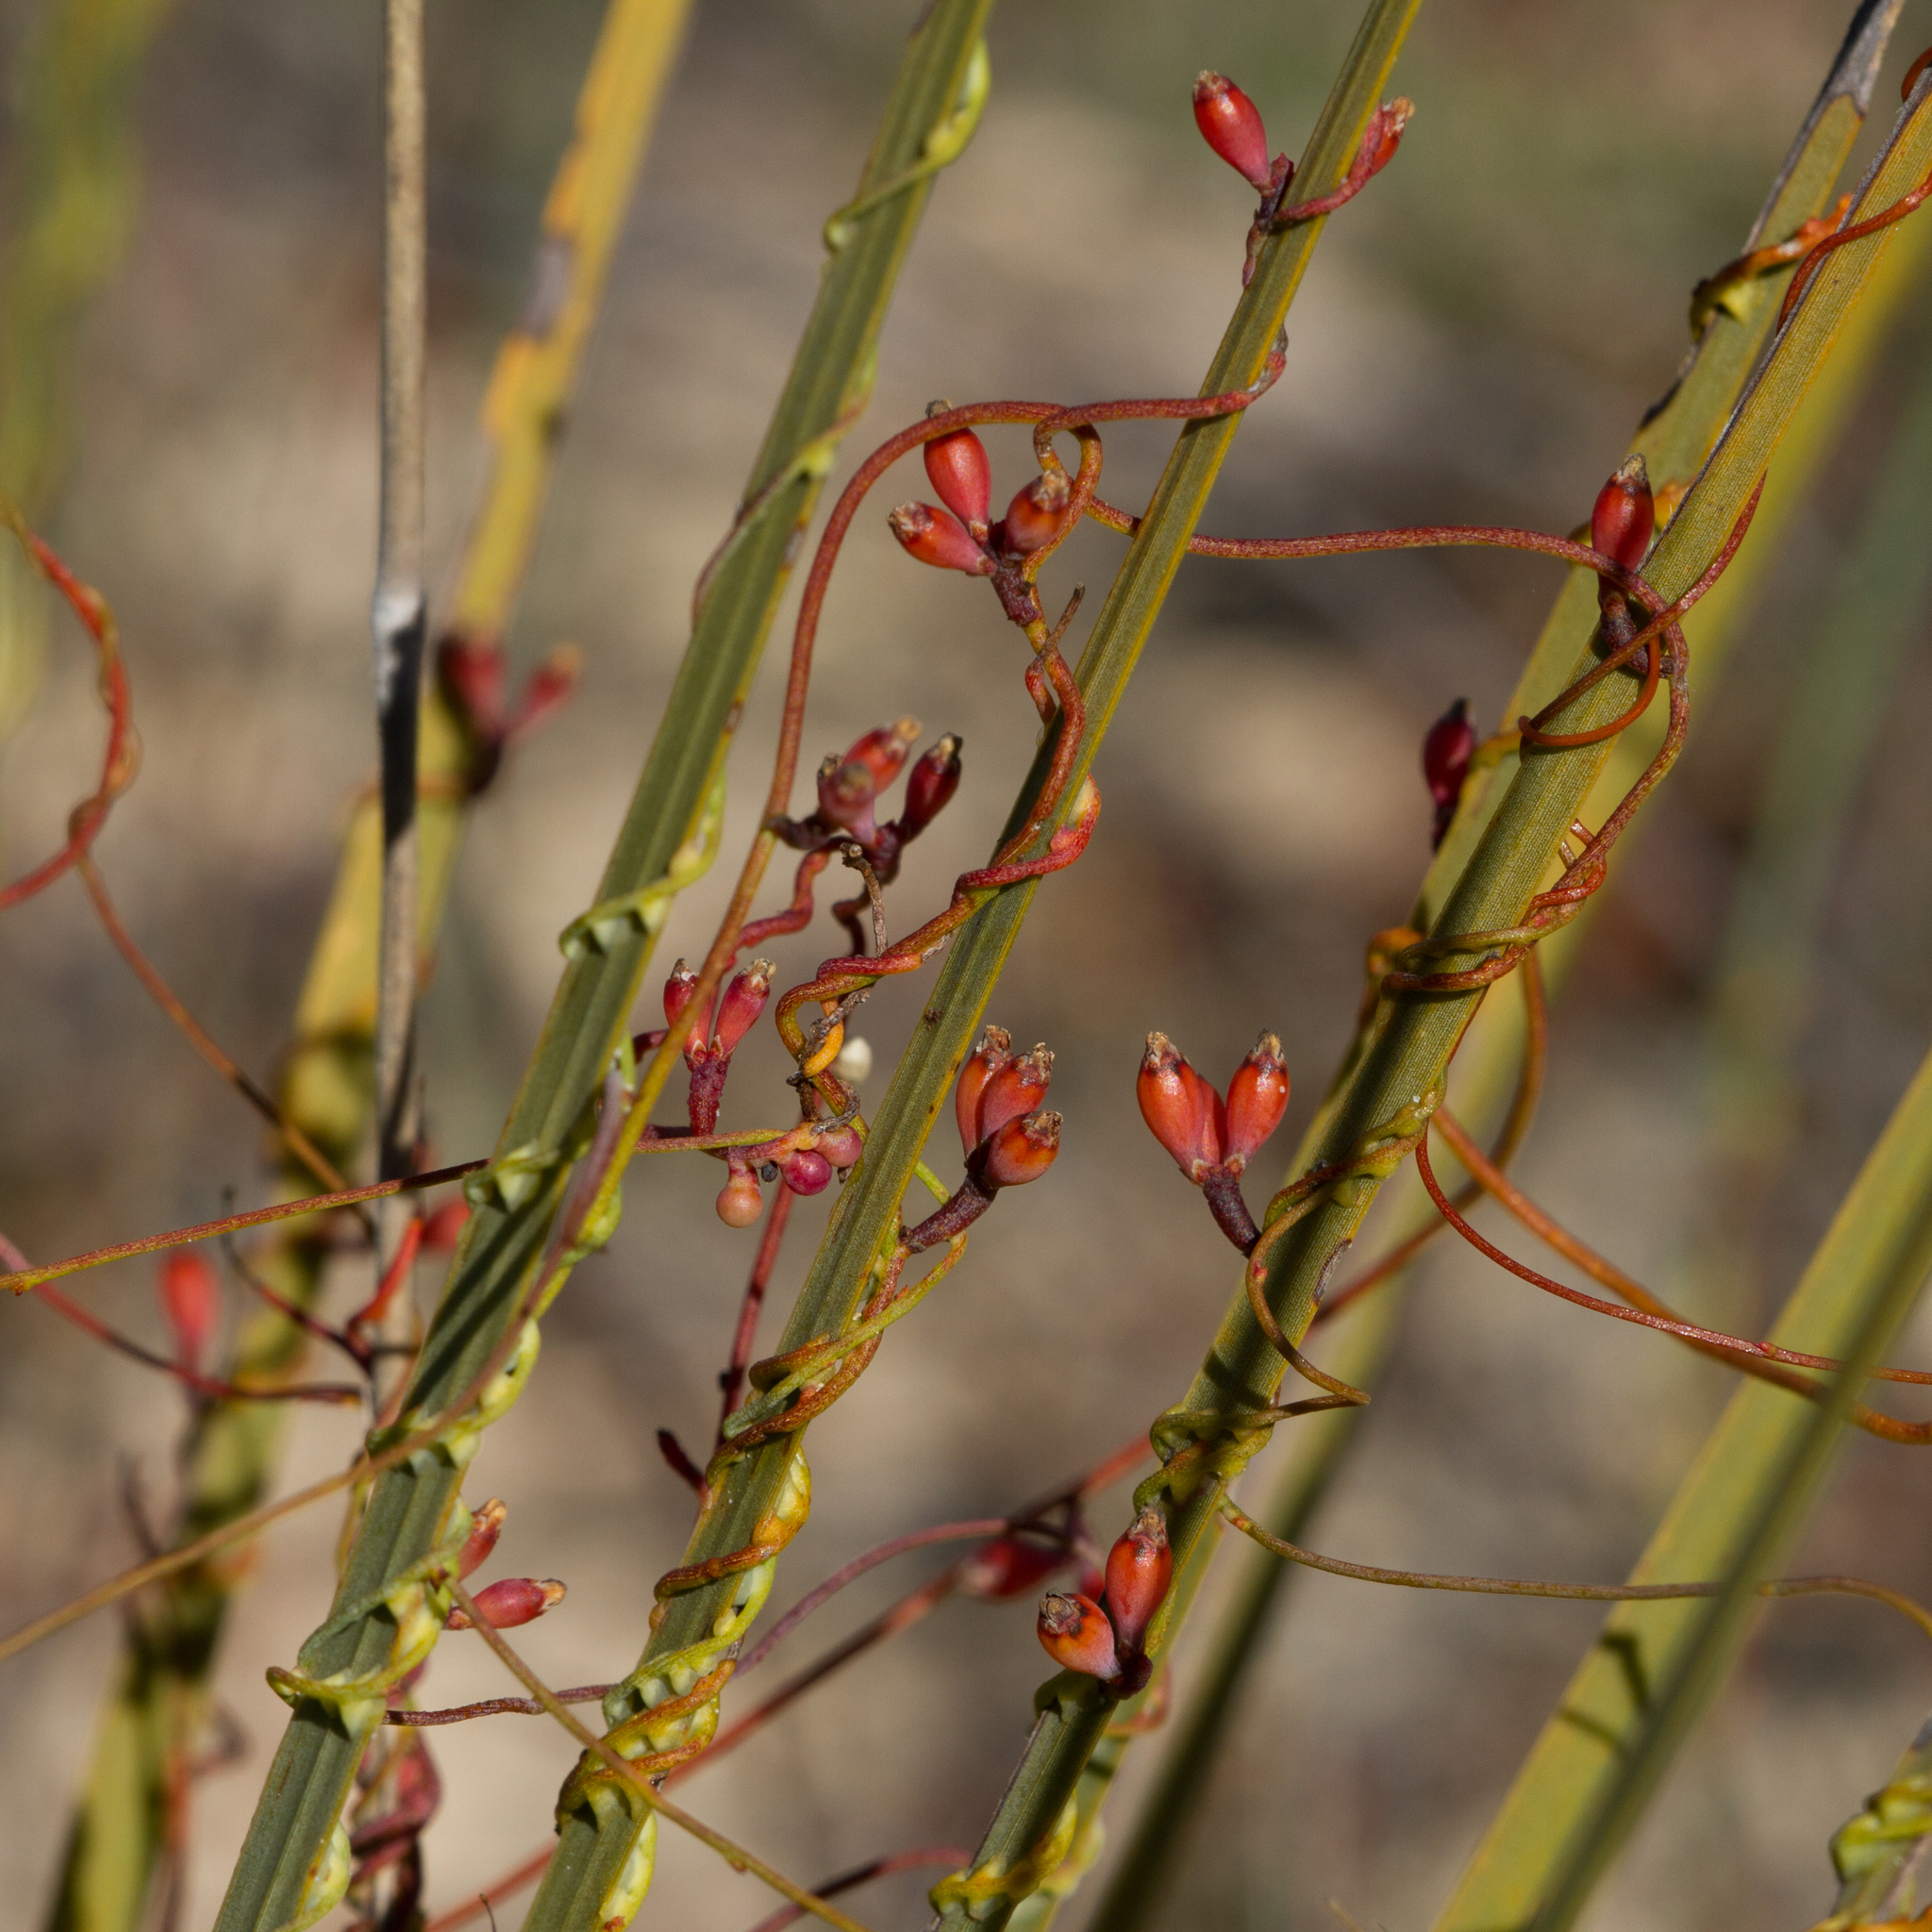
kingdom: Plantae
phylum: Tracheophyta
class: Magnoliopsida
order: Laurales
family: Lauraceae
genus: Cassytha
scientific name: Cassytha glabella
